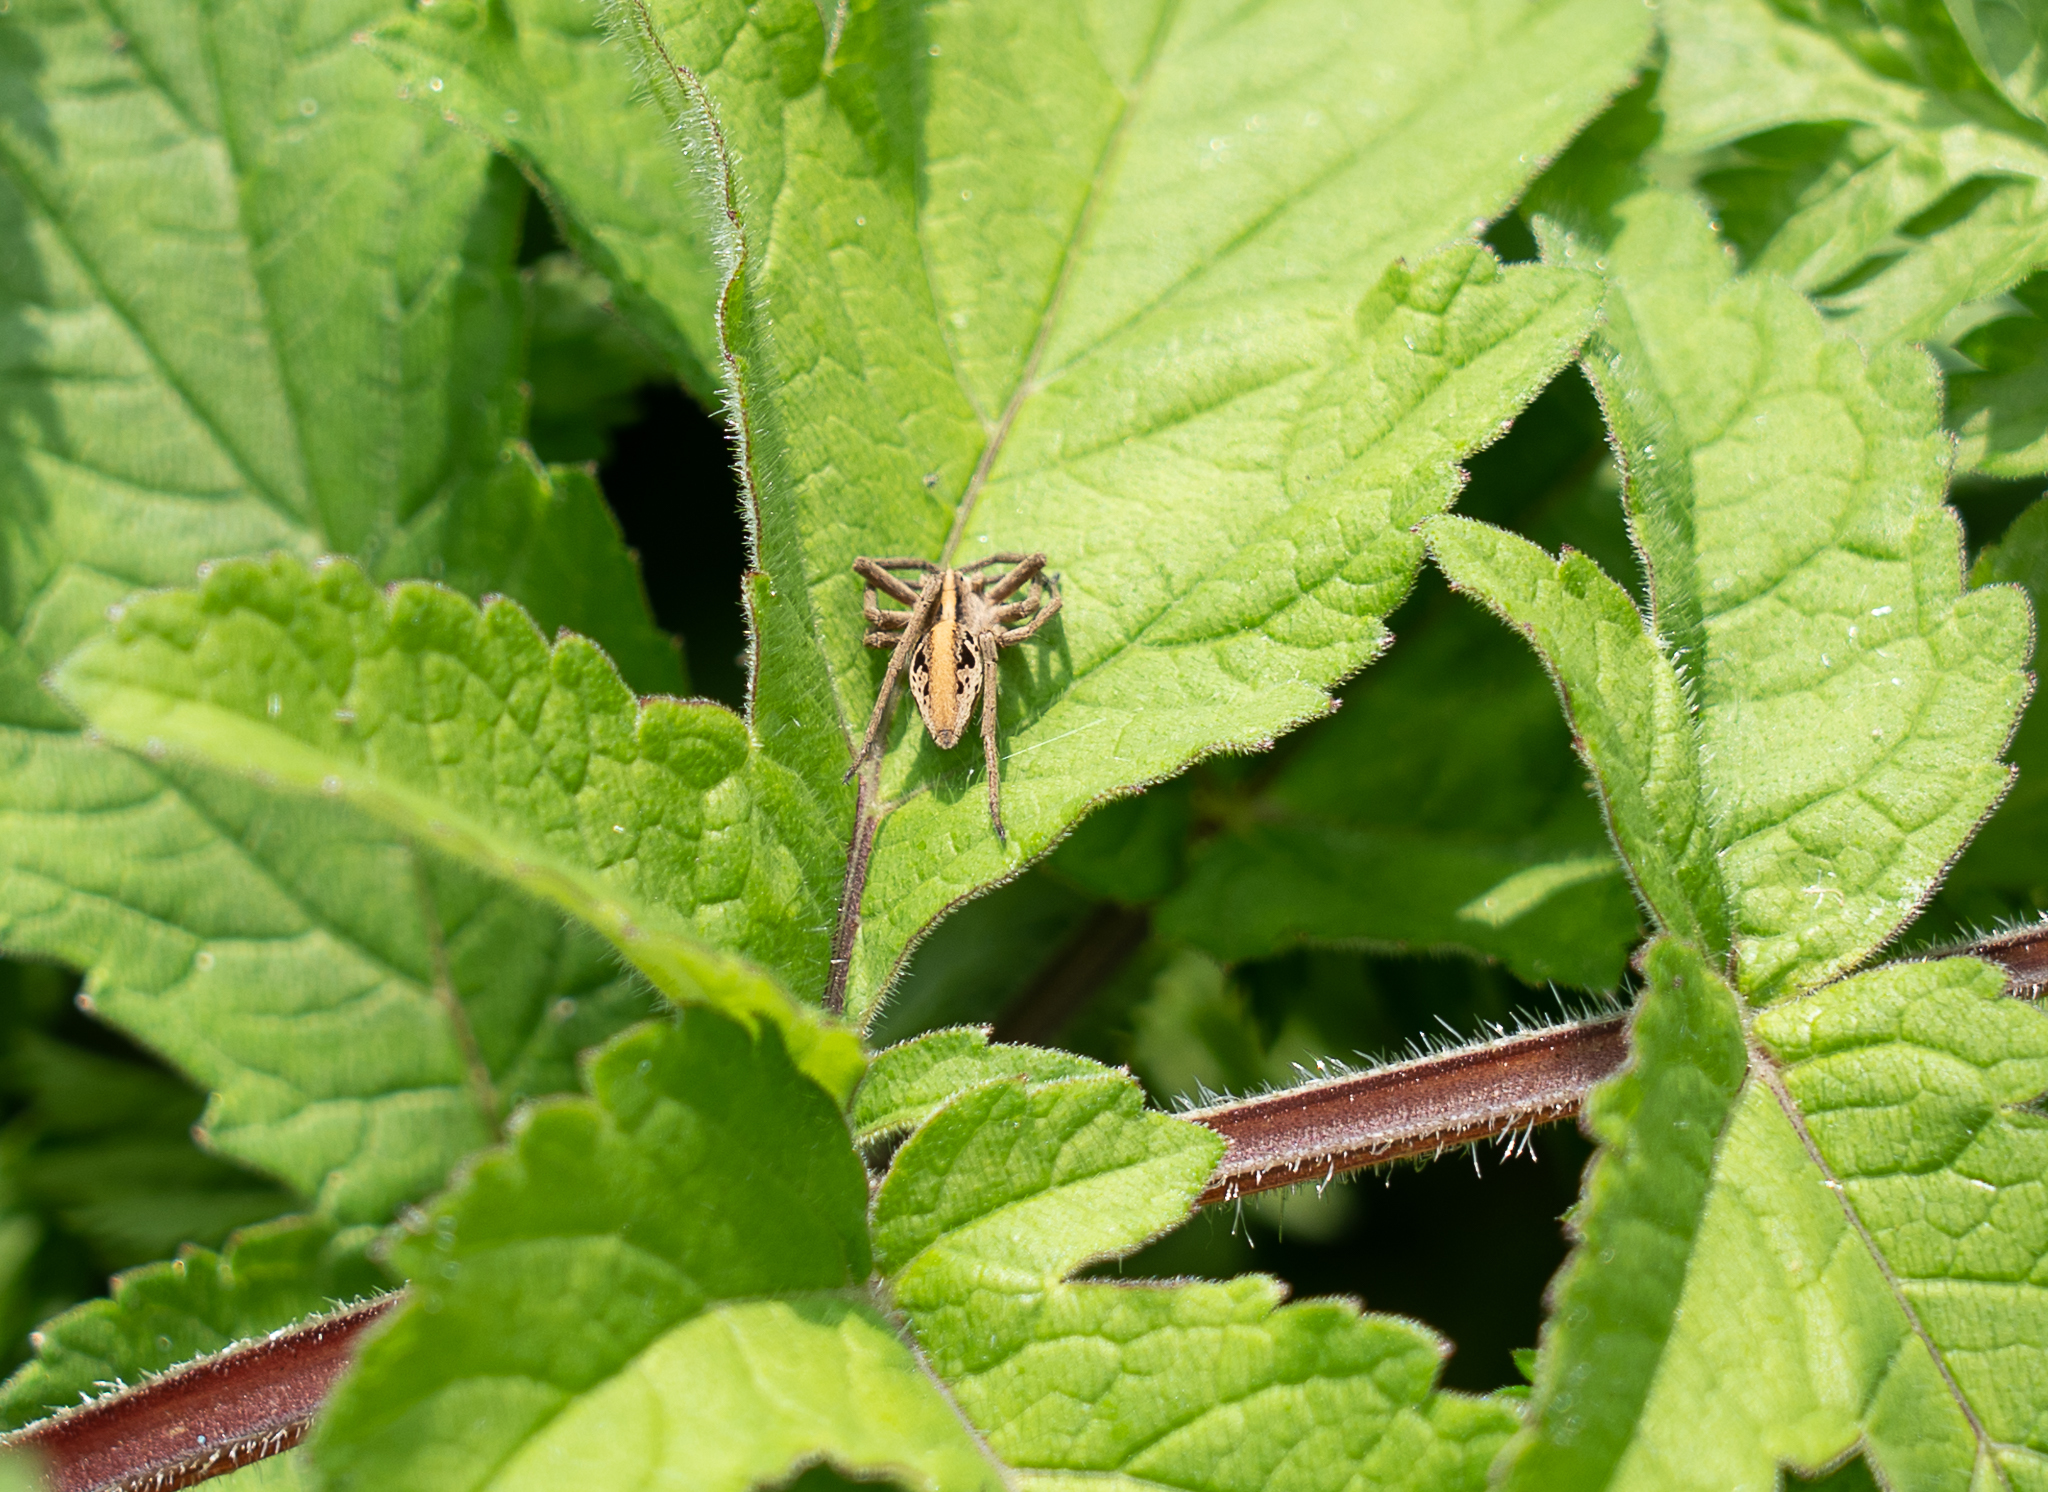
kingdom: Animalia
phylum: Arthropoda
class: Arachnida
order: Araneae
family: Pisauridae
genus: Pisaura
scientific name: Pisaura mirabilis
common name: Tent spider
